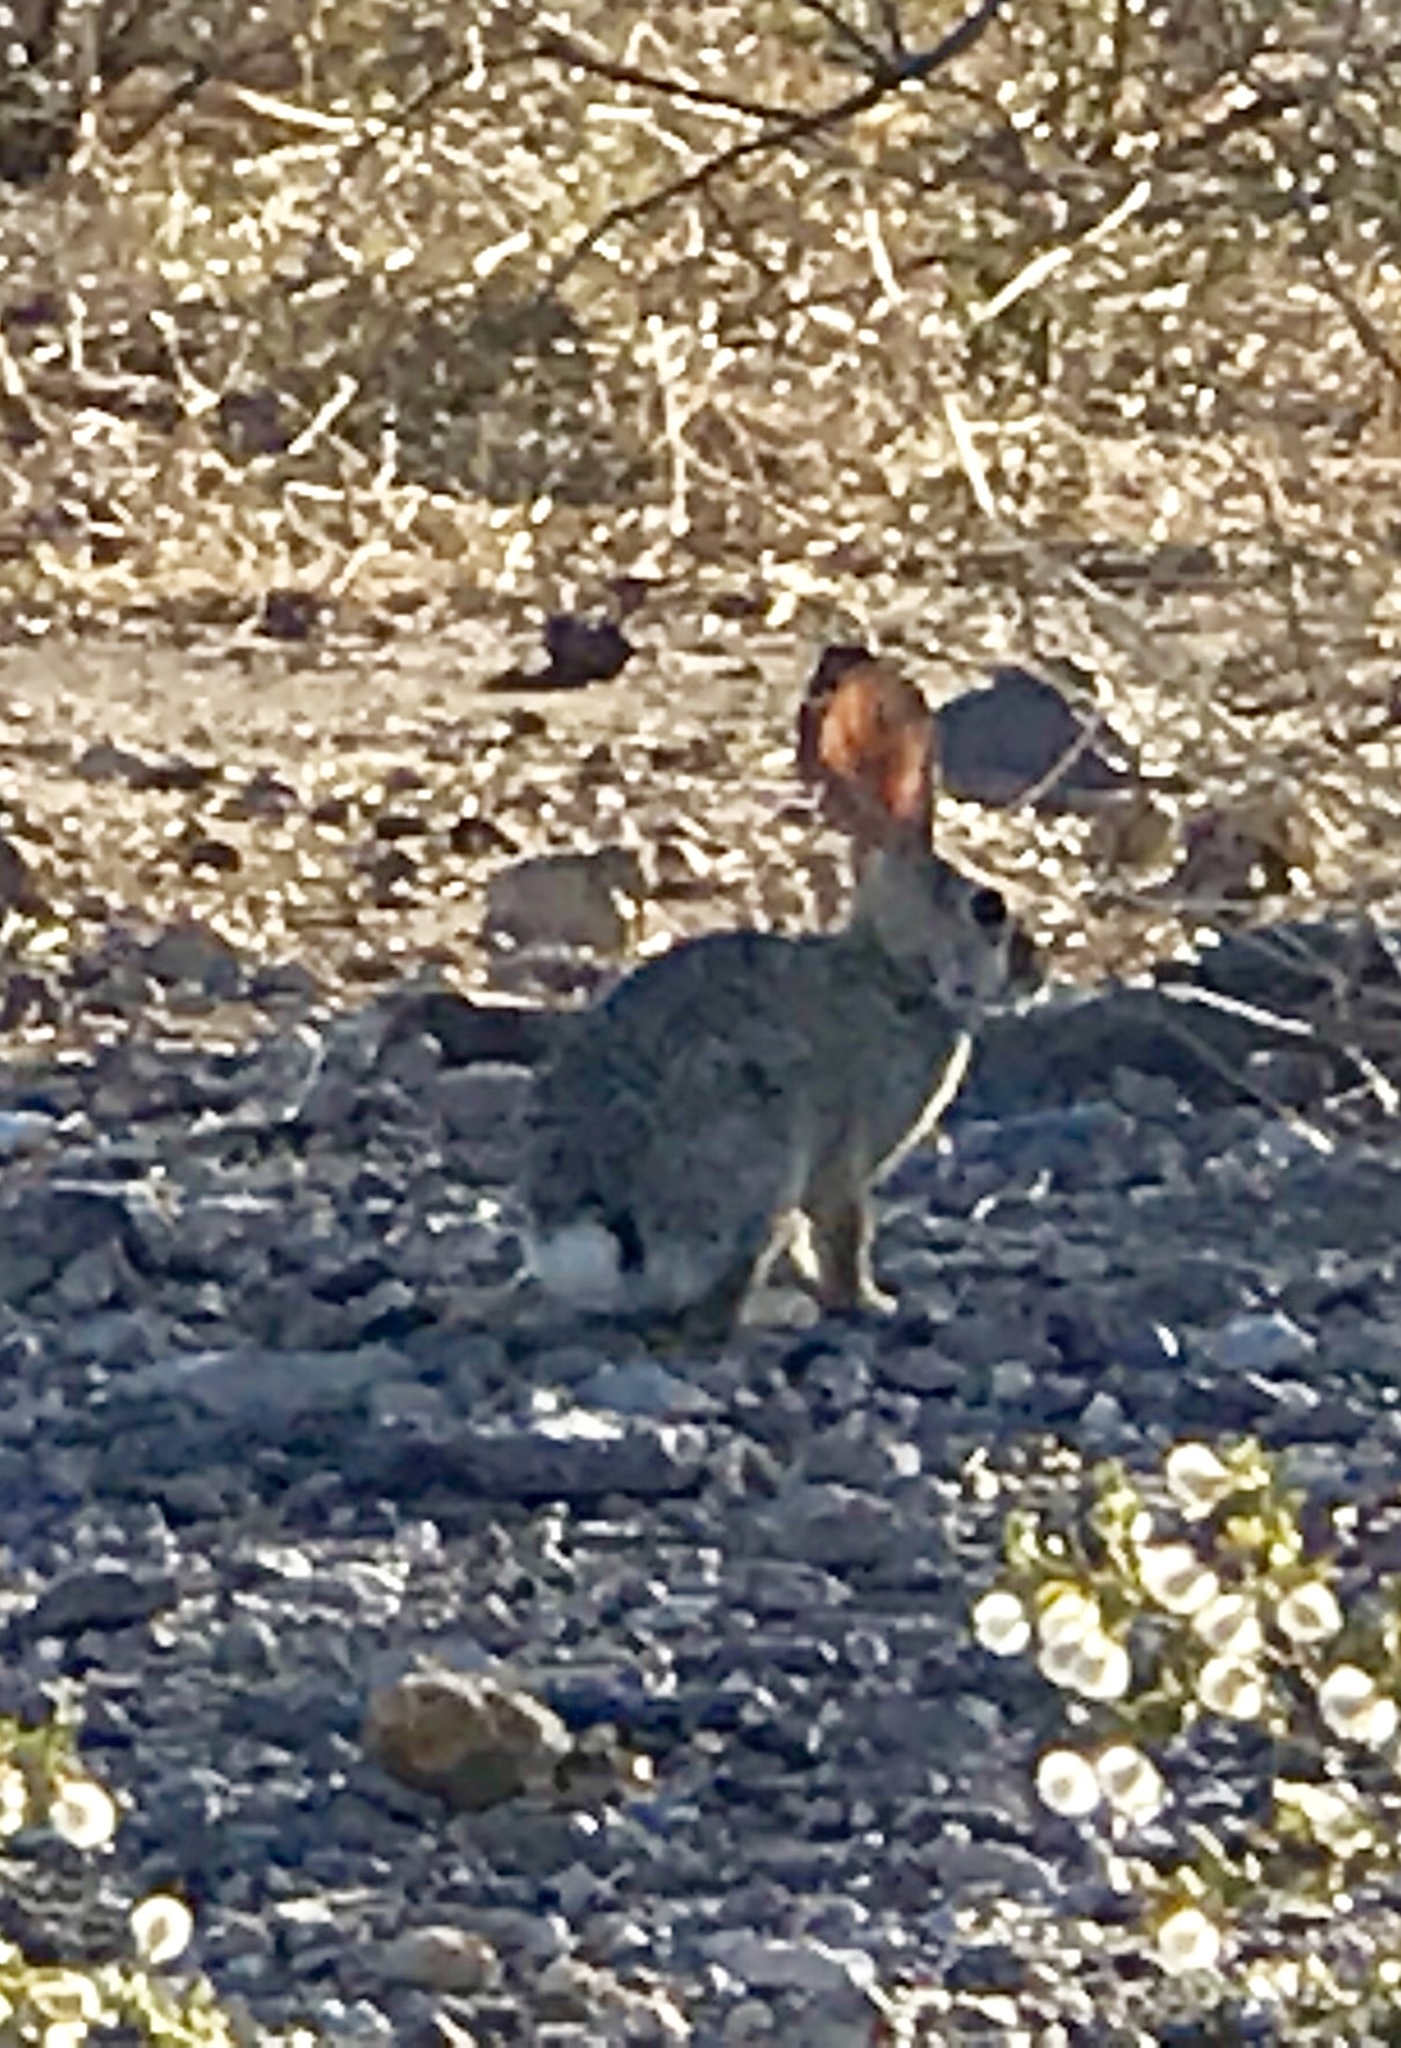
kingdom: Animalia
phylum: Chordata
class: Mammalia
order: Lagomorpha
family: Leporidae
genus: Sylvilagus
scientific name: Sylvilagus audubonii
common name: Desert cottontail
